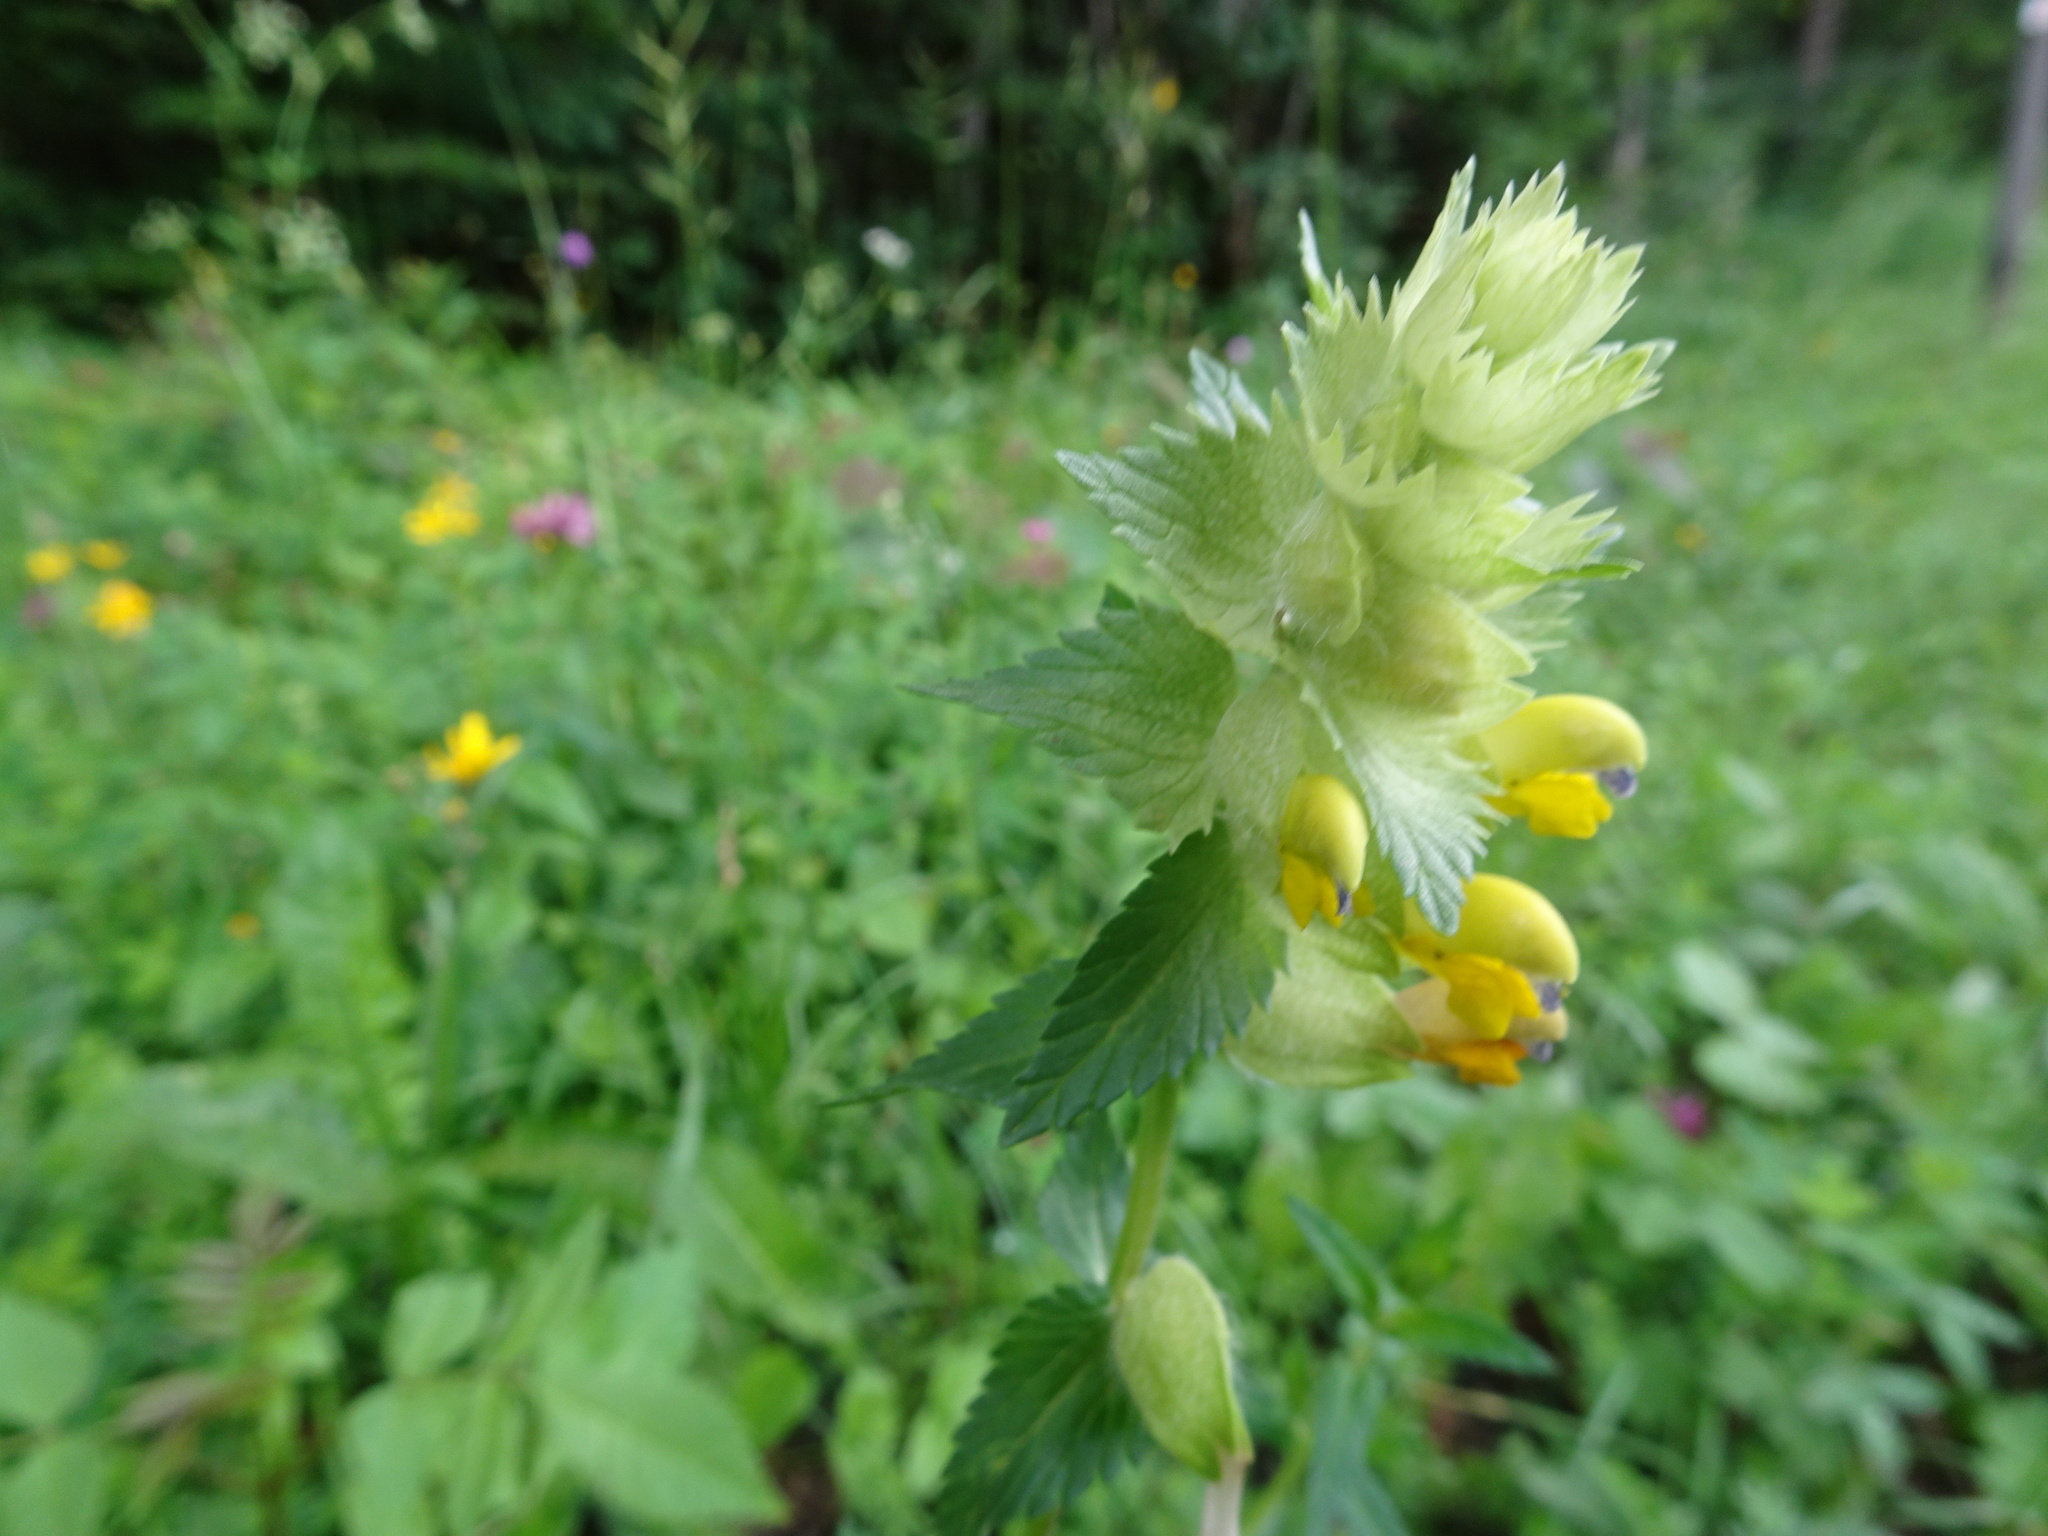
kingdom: Plantae
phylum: Tracheophyta
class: Magnoliopsida
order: Lamiales
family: Orobanchaceae
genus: Rhinanthus
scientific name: Rhinanthus alectorolophus
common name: Greater yellow-rattle
